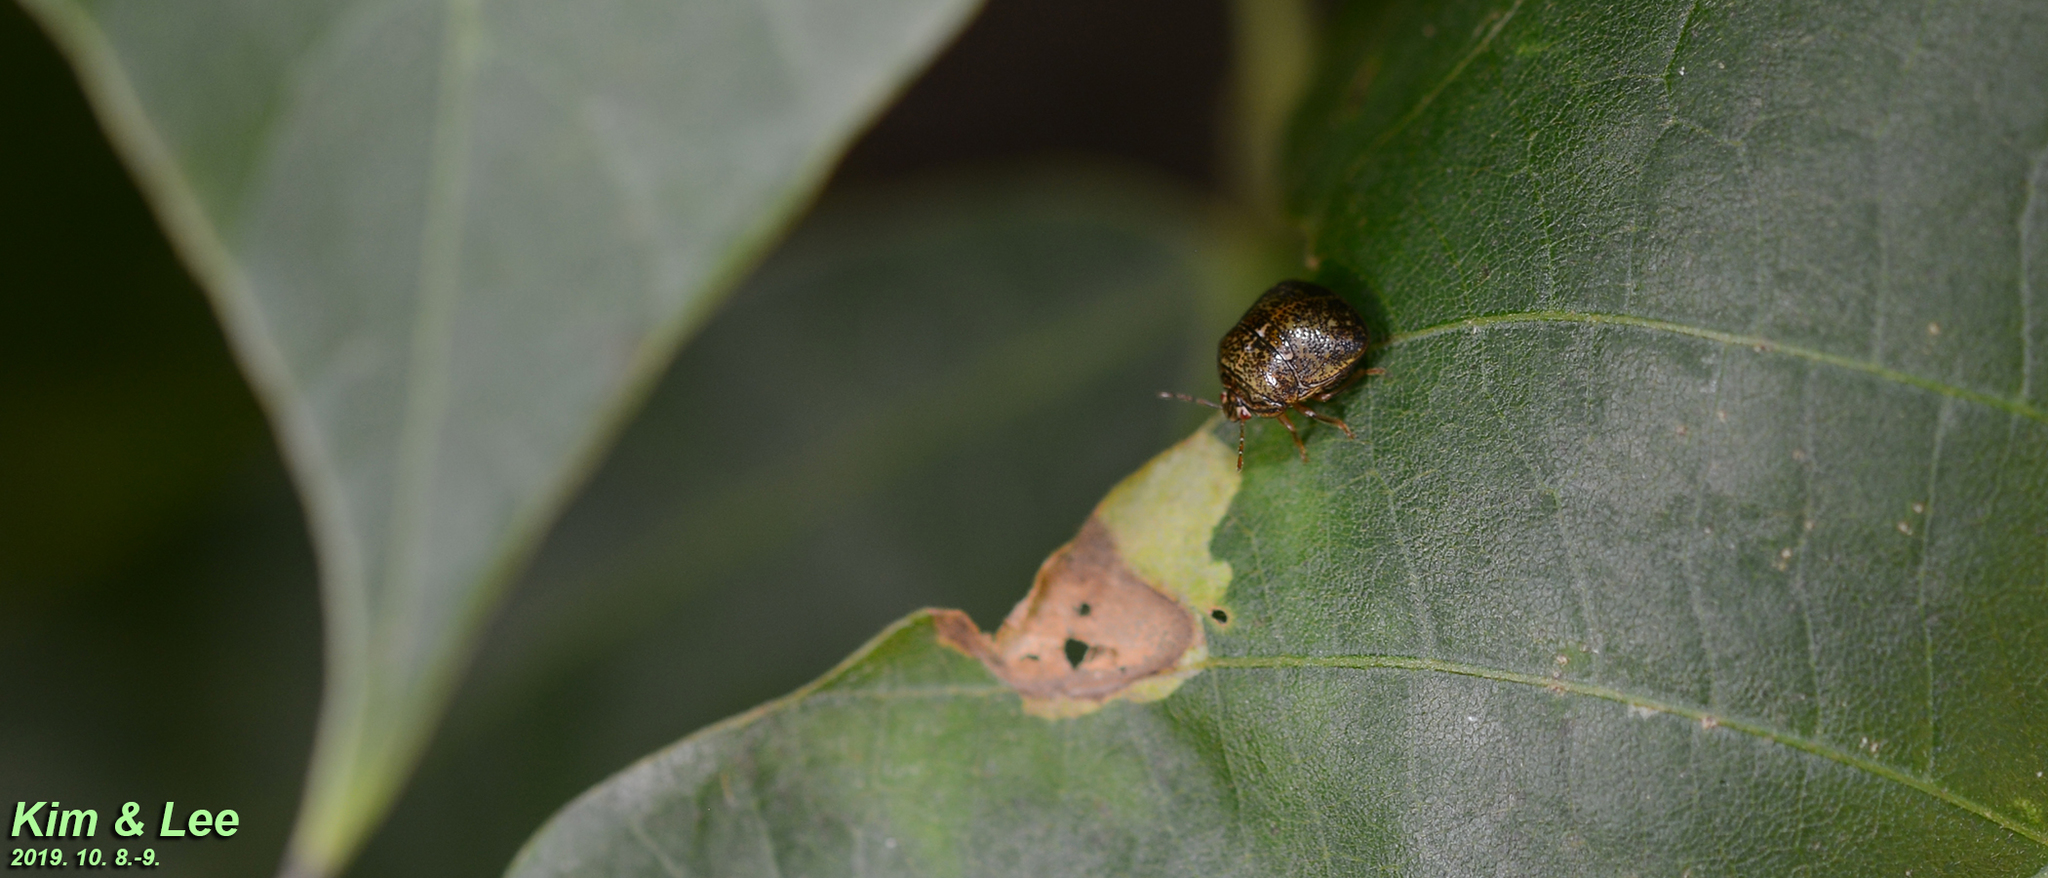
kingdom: Animalia
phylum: Arthropoda
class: Insecta
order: Hemiptera
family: Plataspidae
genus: Megacopta
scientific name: Megacopta cribraria
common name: Bean plataspid
